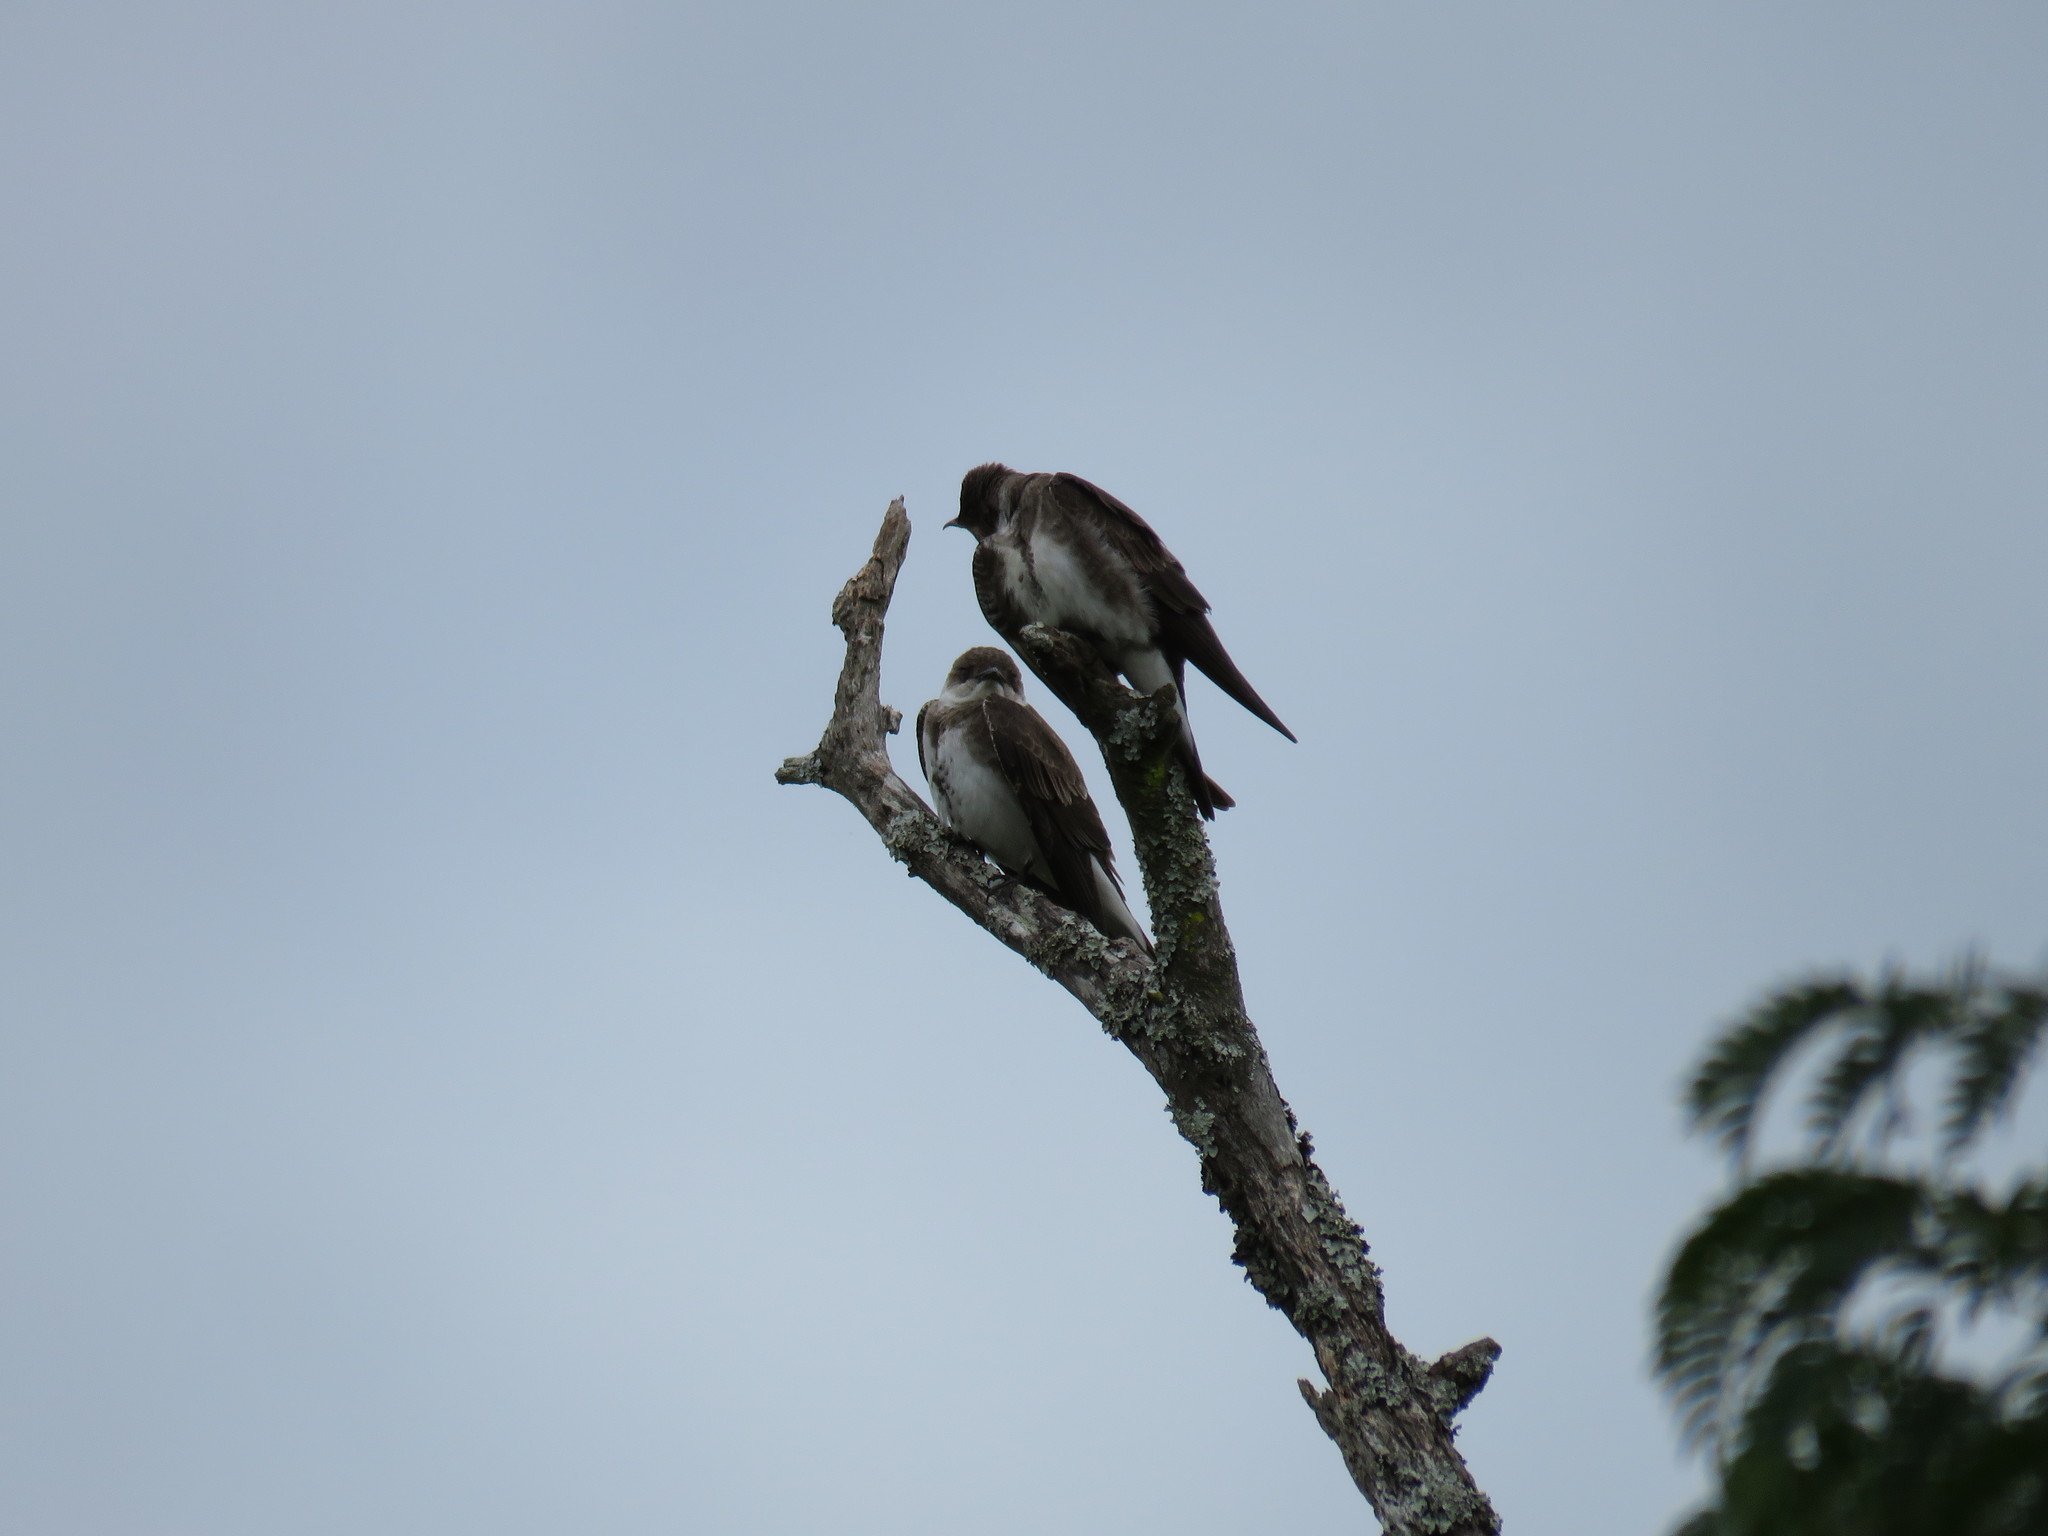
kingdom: Animalia
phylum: Chordata
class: Aves
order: Passeriformes
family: Hirundinidae
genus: Progne
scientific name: Progne tapera
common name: Brown-chested martin
